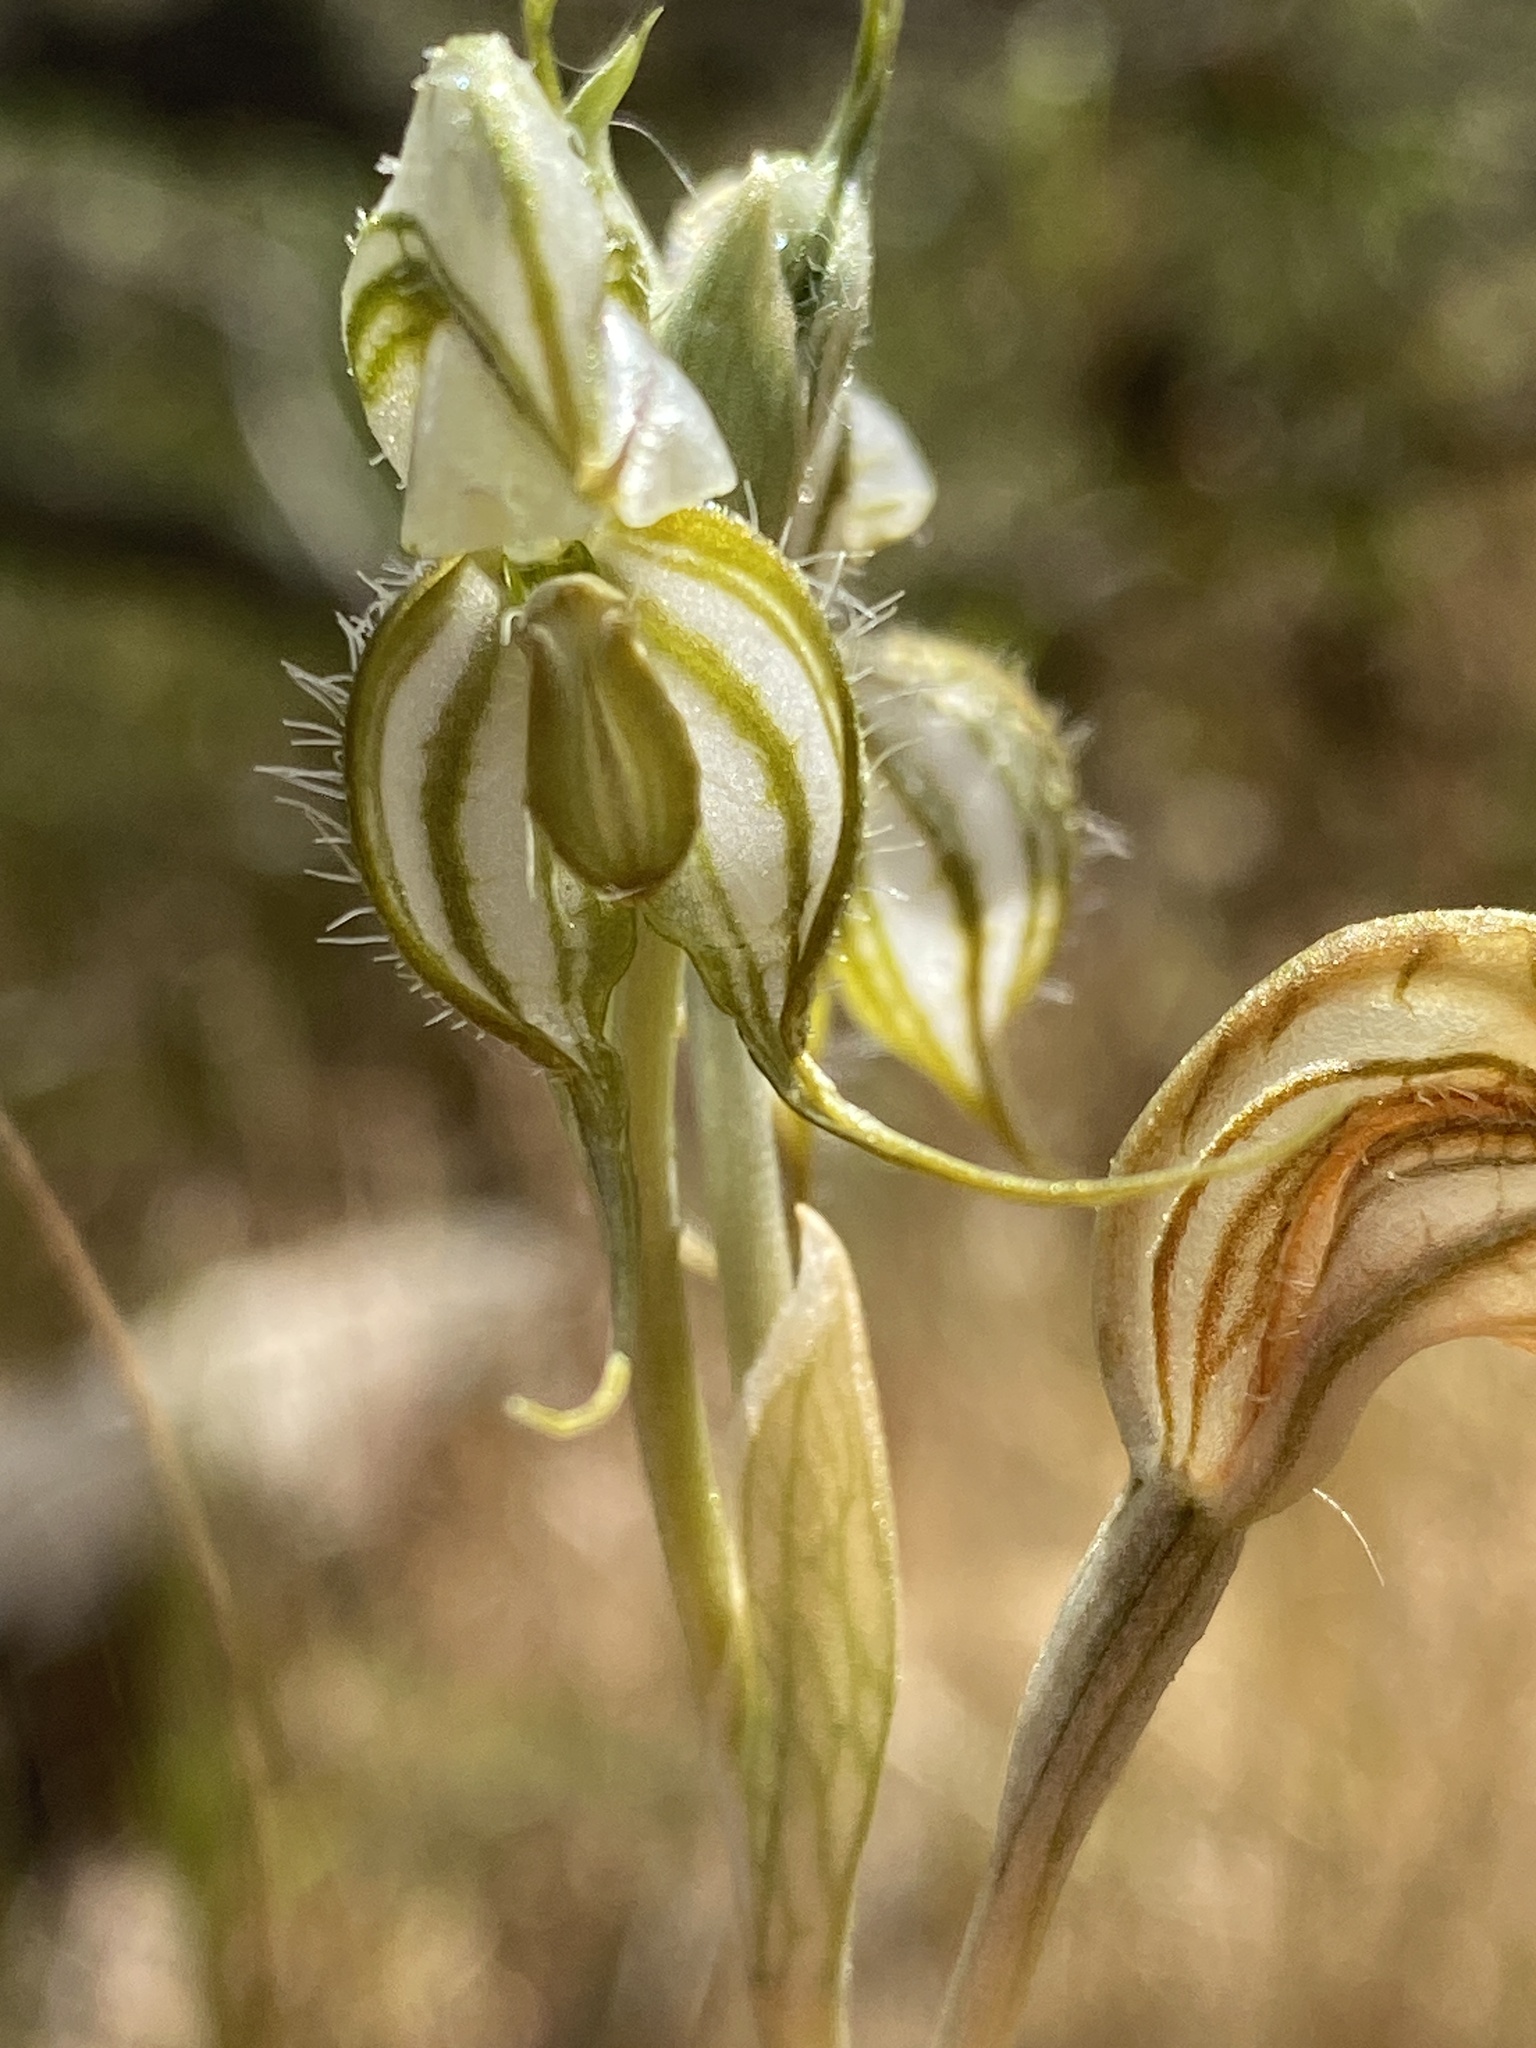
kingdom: Plantae
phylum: Tracheophyta
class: Liliopsida
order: Asparagales
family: Orchidaceae
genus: Pterostylis
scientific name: Pterostylis psammophilus
